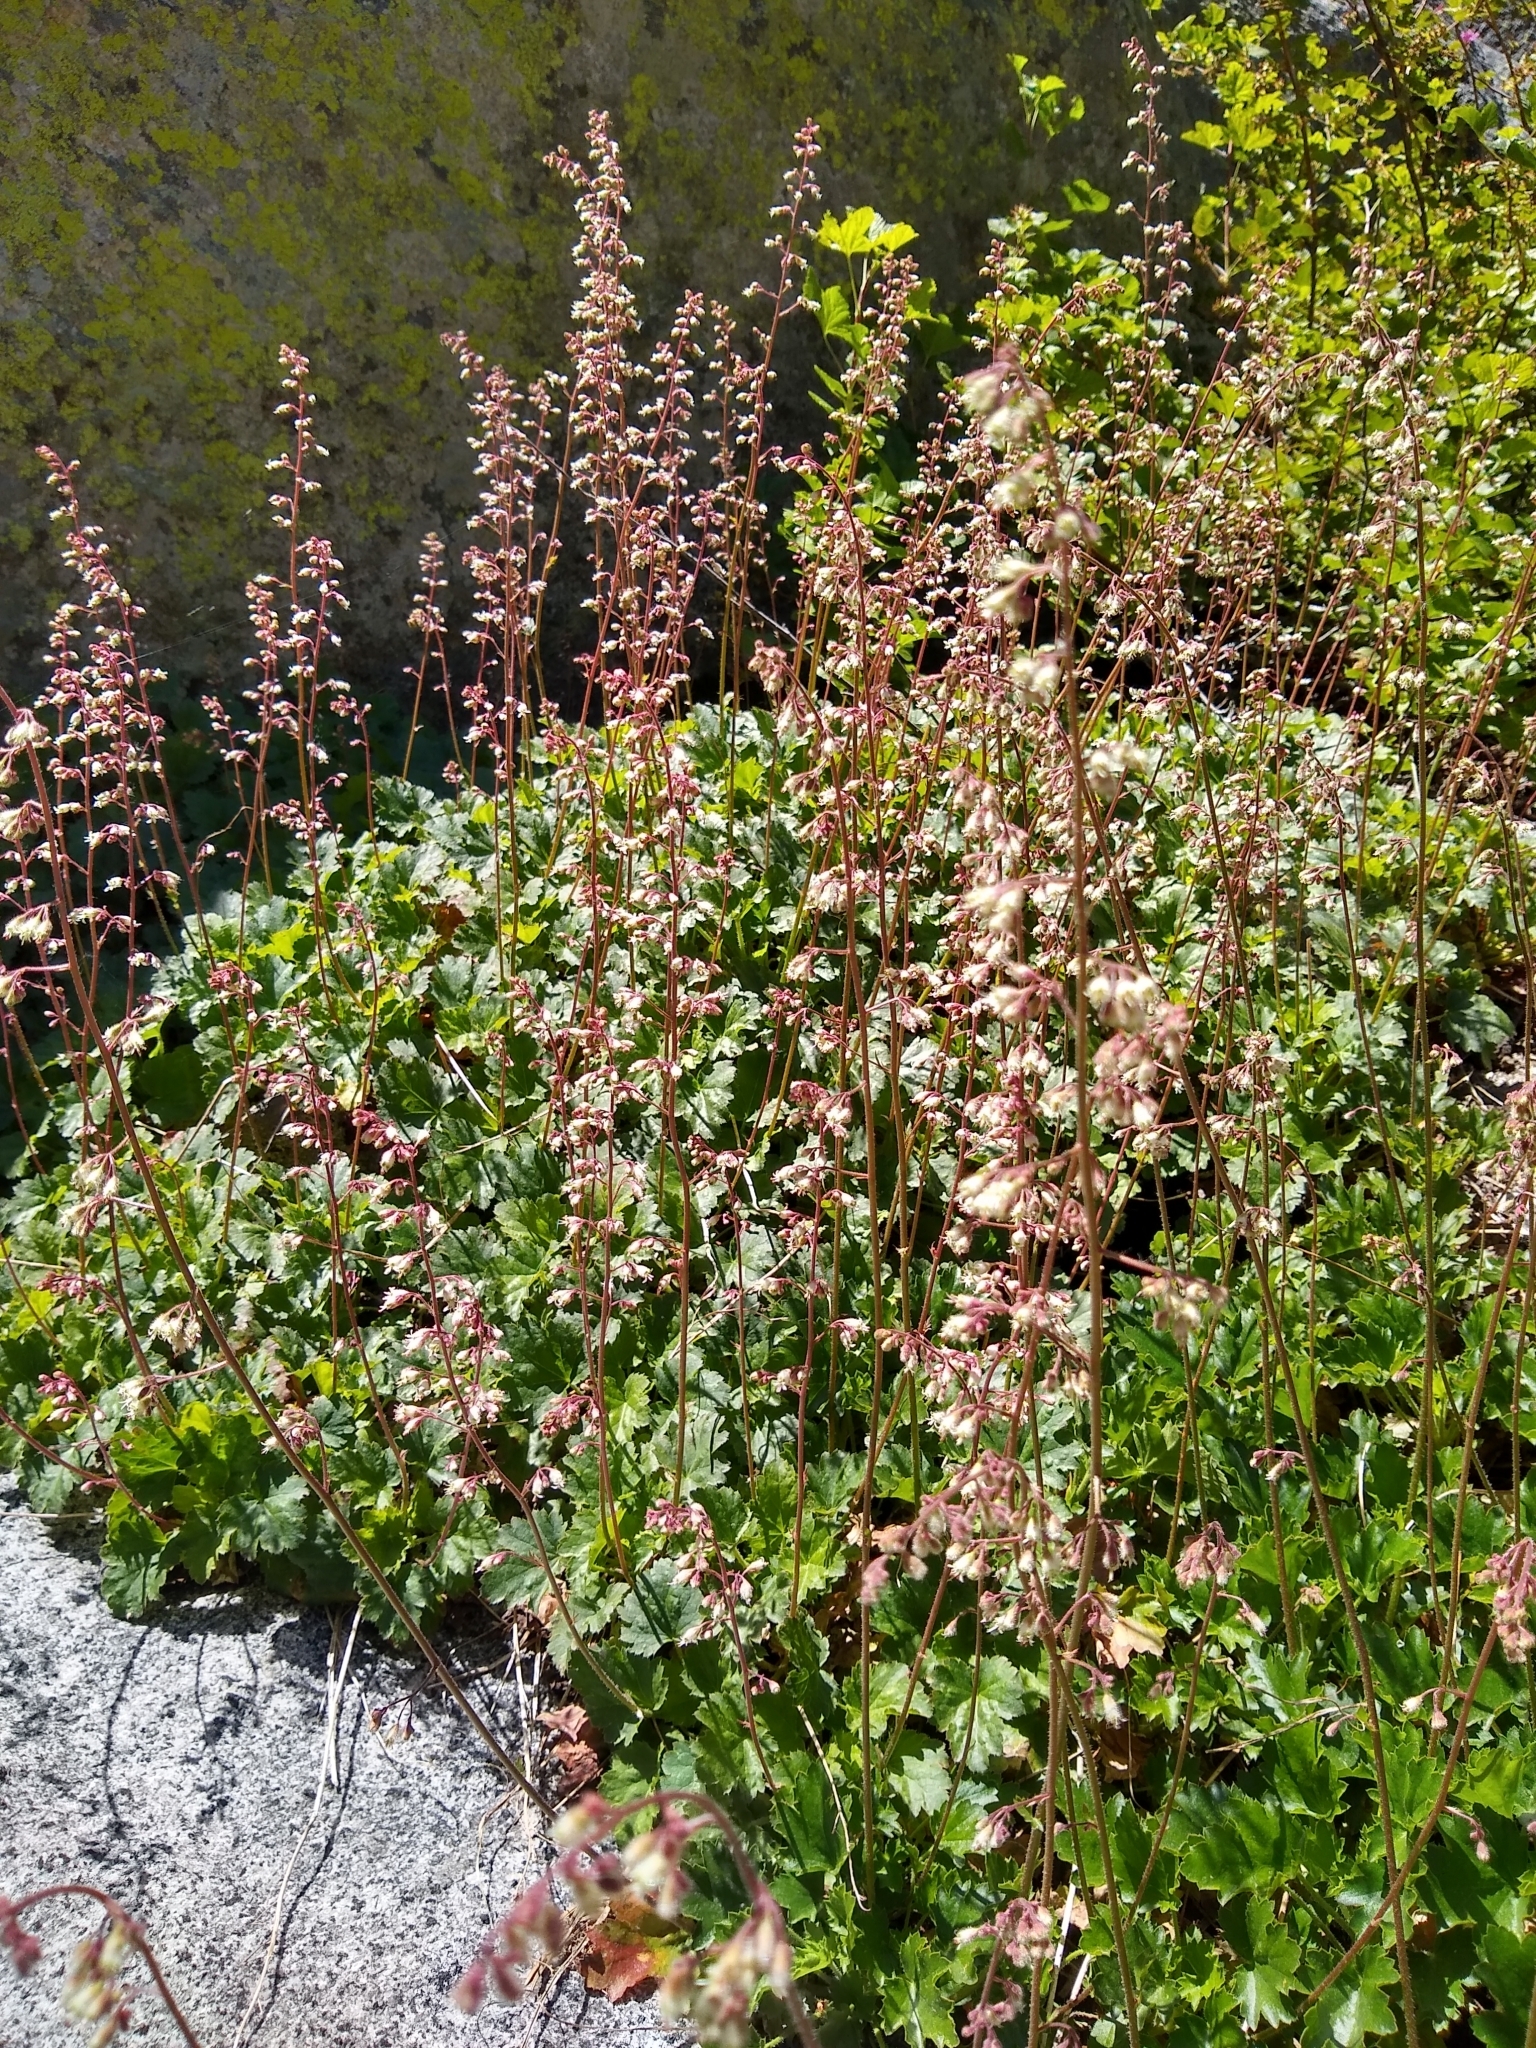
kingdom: Plantae
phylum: Tracheophyta
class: Magnoliopsida
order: Saxifragales
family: Saxifragaceae
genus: Heuchera
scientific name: Heuchera rubescens
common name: Jack-o'the-rocks
